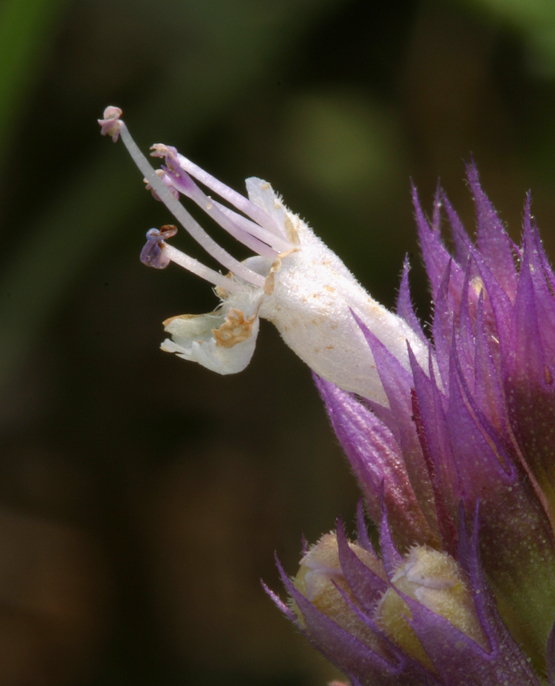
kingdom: Plantae
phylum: Tracheophyta
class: Magnoliopsida
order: Lamiales
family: Lamiaceae
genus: Agastache
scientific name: Agastache urticifolia
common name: Horsemint giant hyssop
